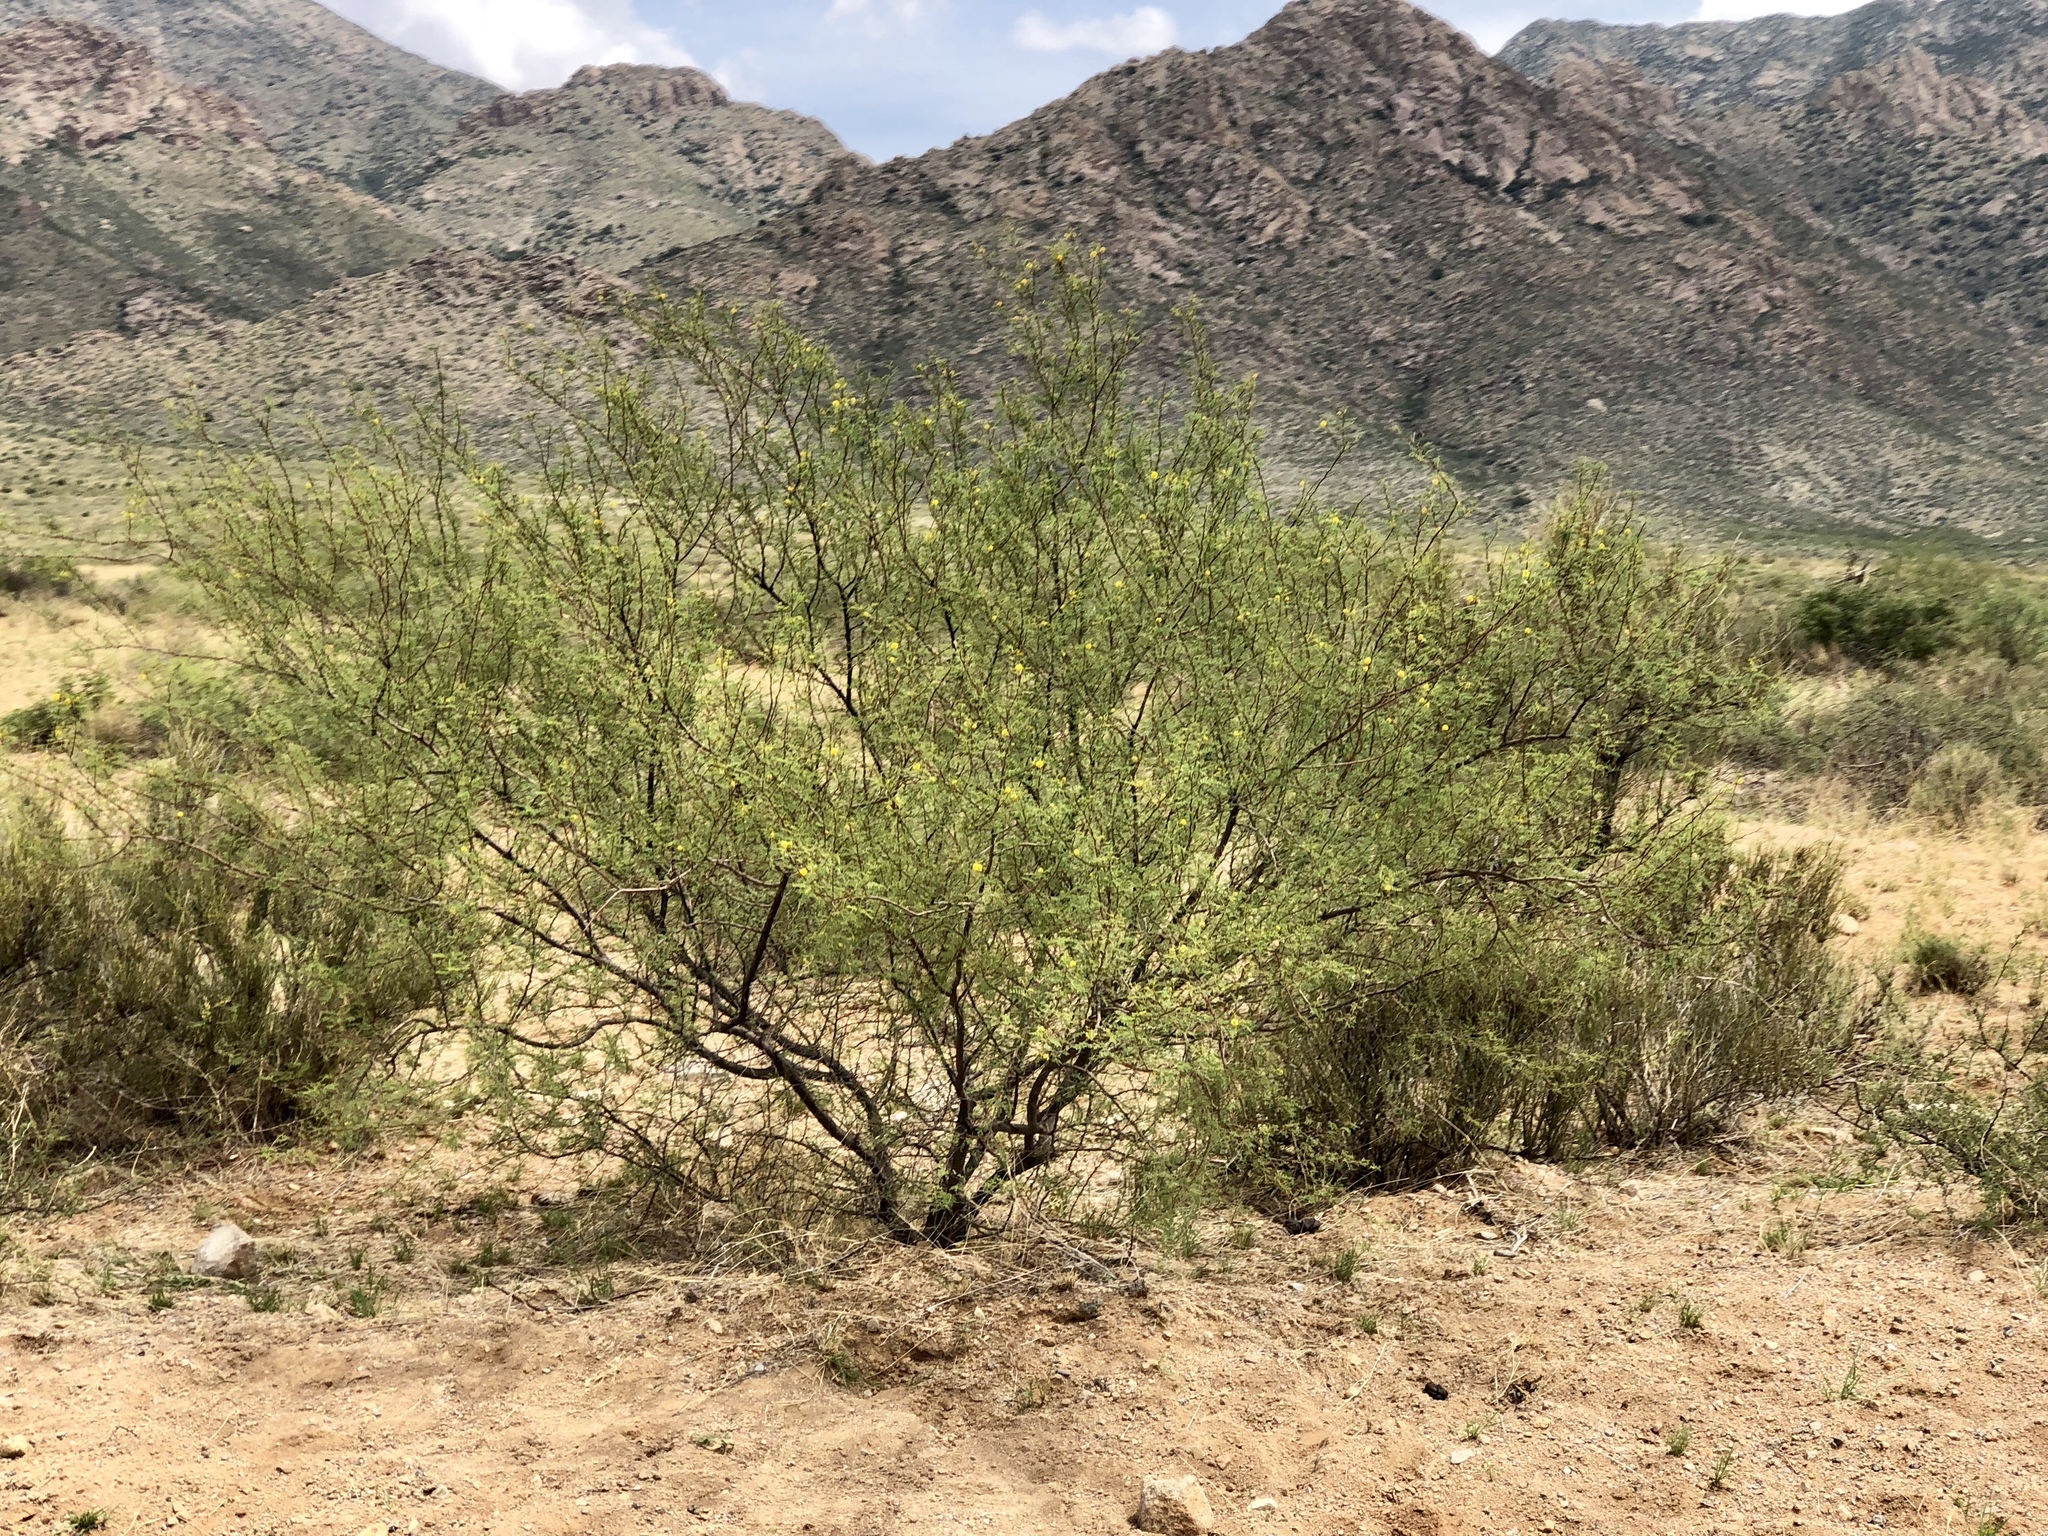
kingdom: Plantae
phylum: Tracheophyta
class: Magnoliopsida
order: Fabales
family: Fabaceae
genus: Vachellia
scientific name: Vachellia constricta
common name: Mescat acacia
